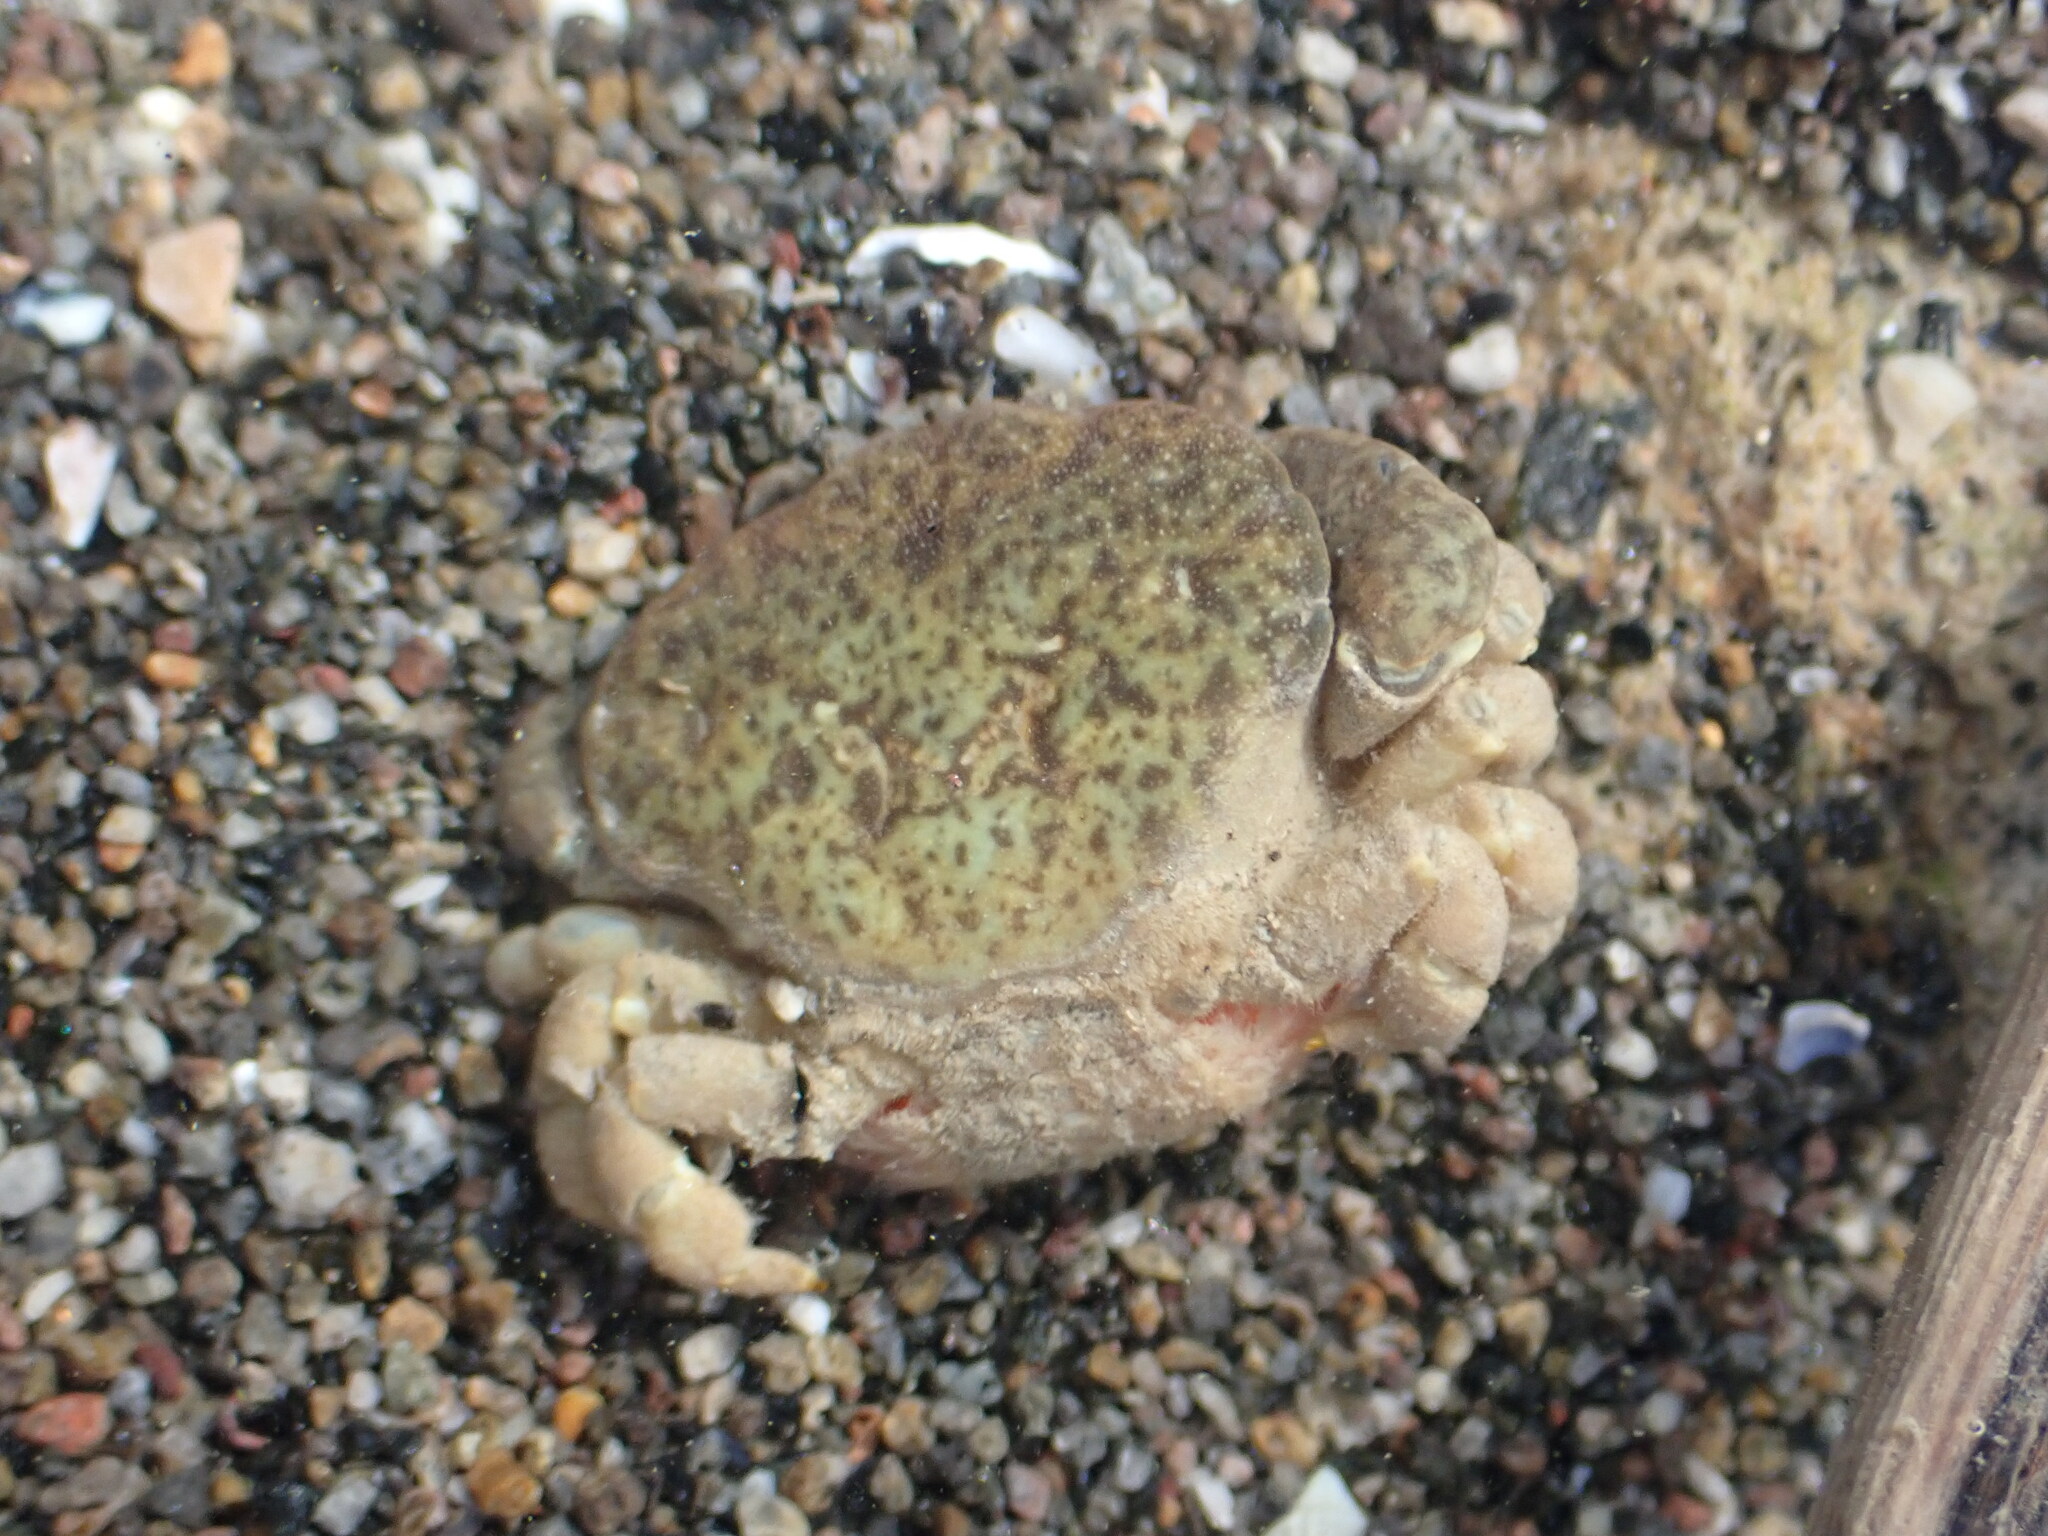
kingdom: Animalia
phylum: Arthropoda
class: Malacostraca
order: Decapoda
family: Heteroziidae
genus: Heterozius
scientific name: Heterozius rotundifrons
